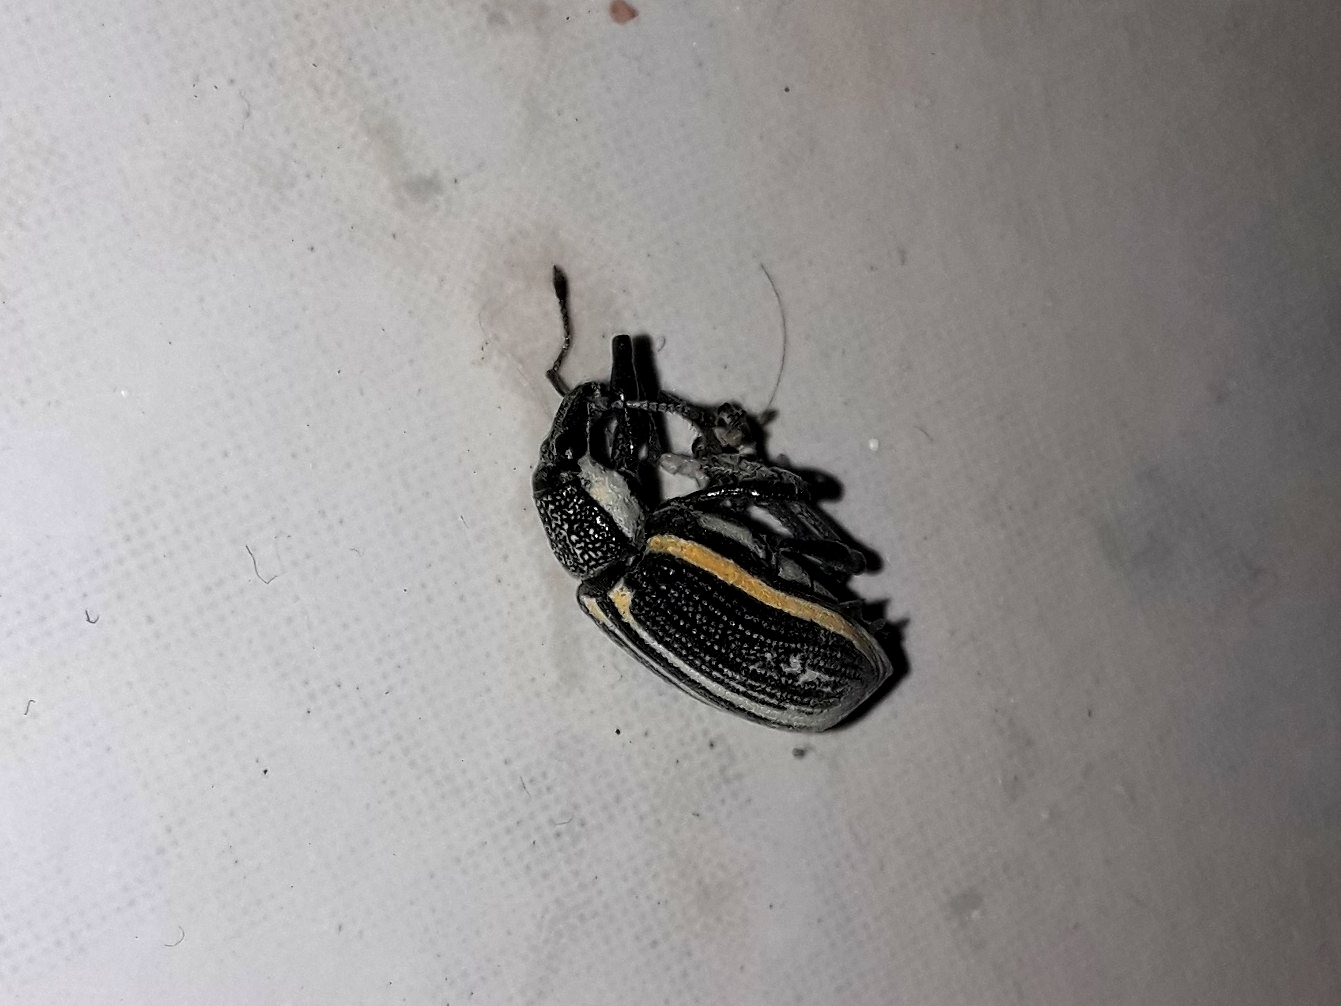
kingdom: Animalia
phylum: Arthropoda
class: Insecta
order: Coleoptera
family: Curculionidae
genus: Diaprepes
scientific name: Diaprepes marginatus
